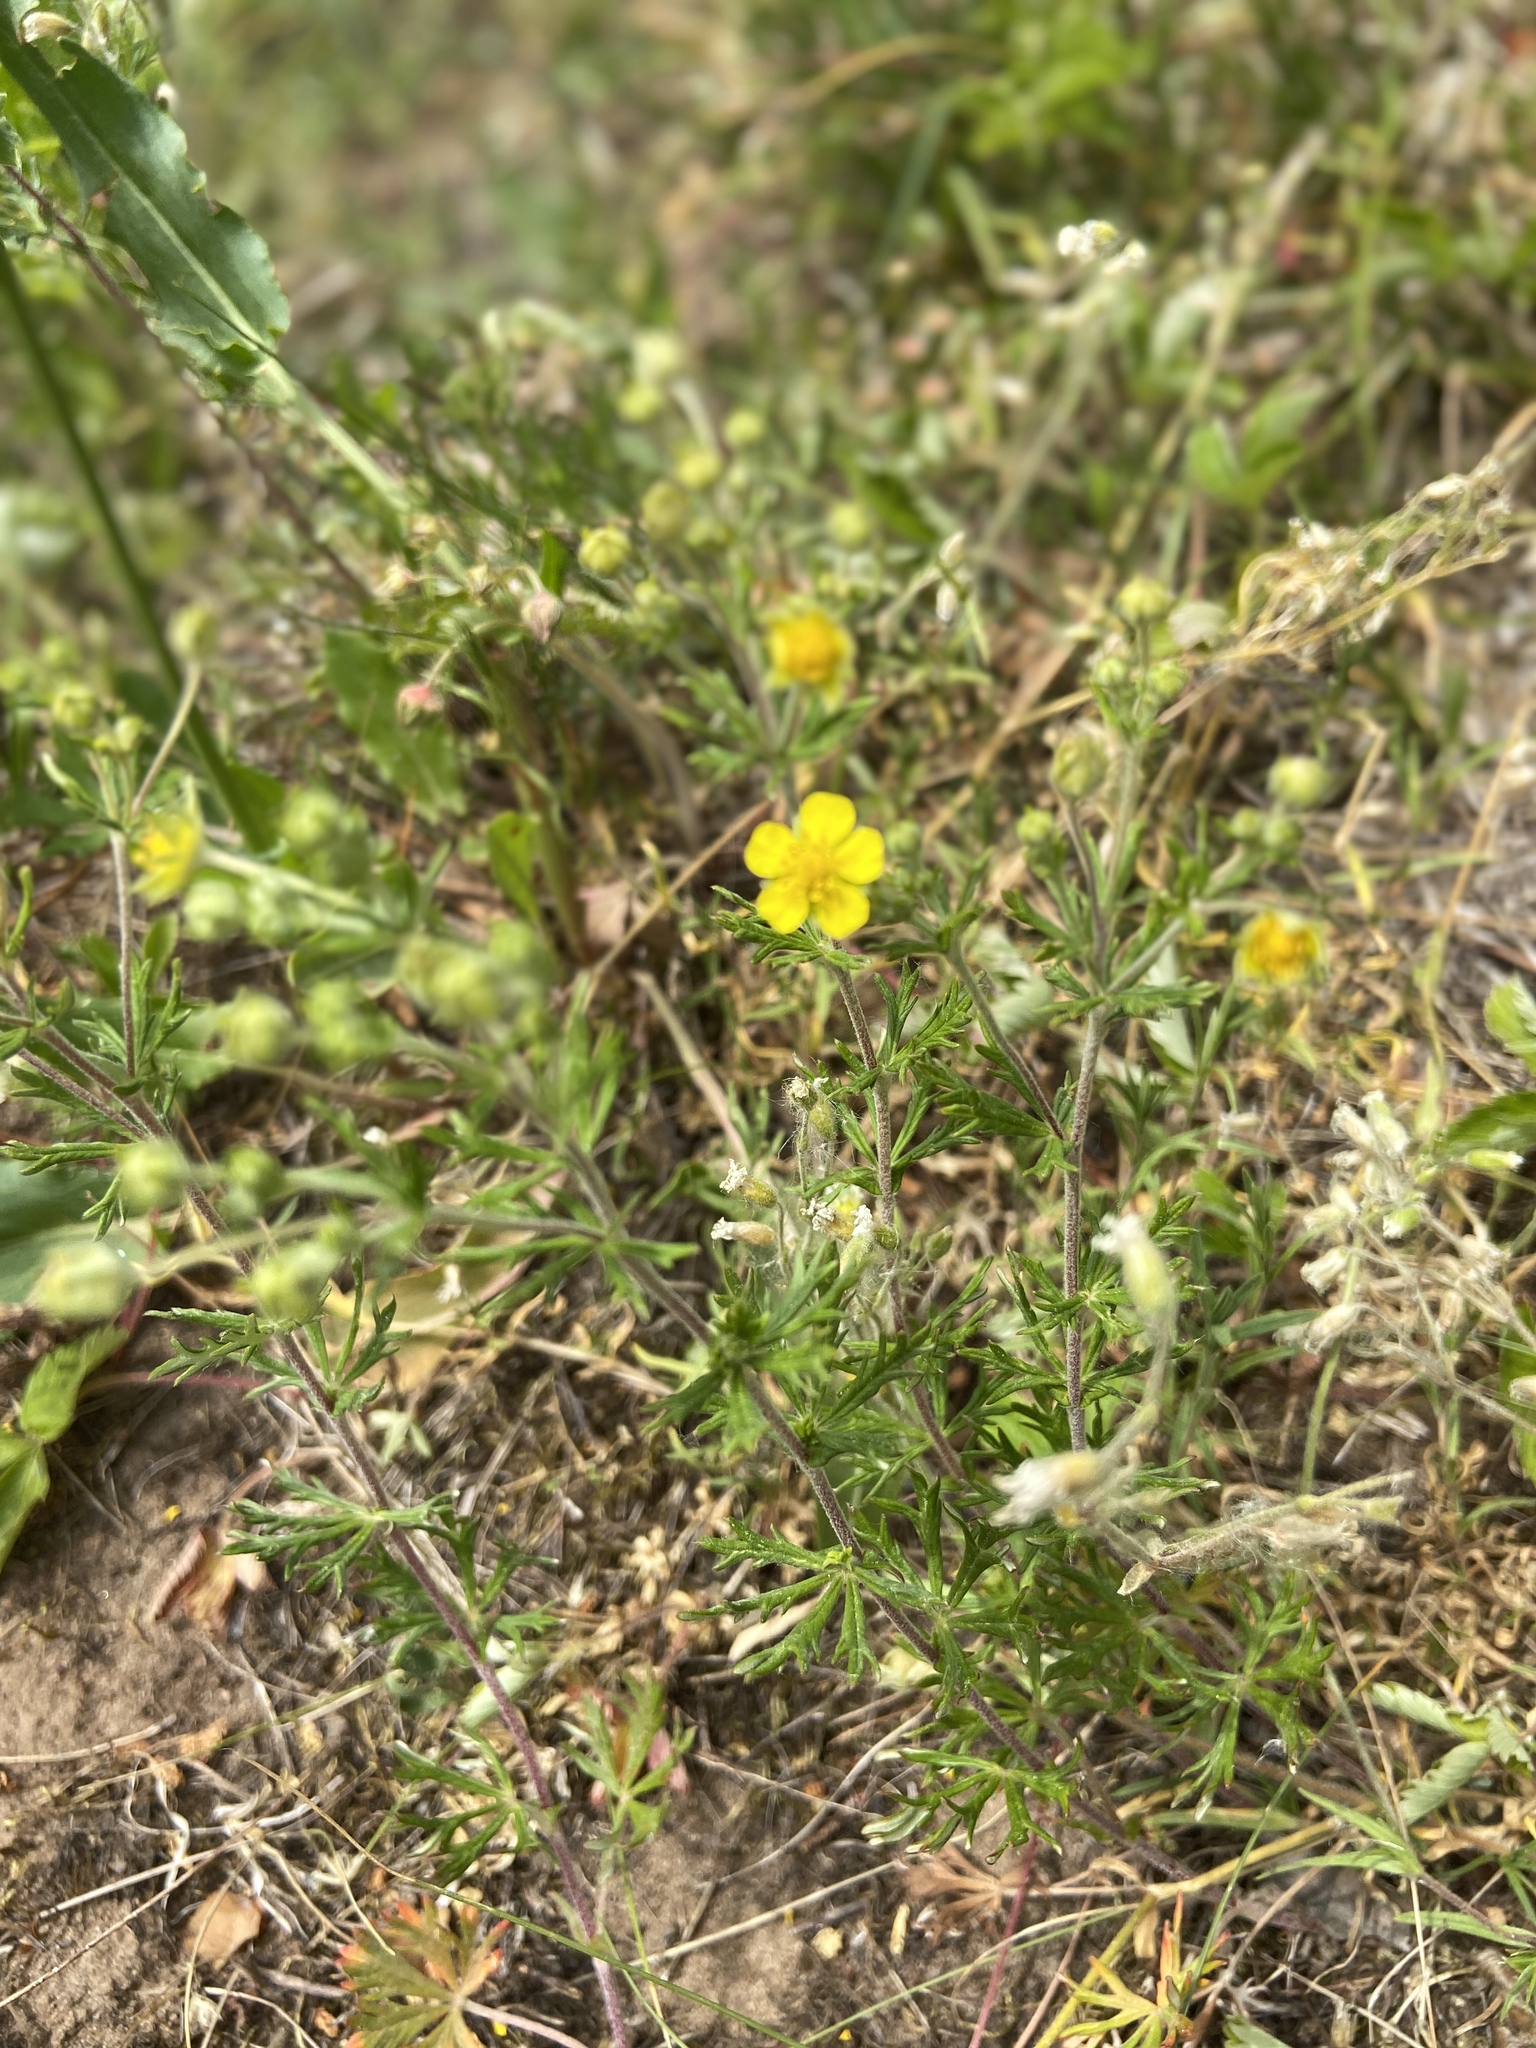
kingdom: Plantae
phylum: Tracheophyta
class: Magnoliopsida
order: Rosales
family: Rosaceae
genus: Potentilla
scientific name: Potentilla erecta
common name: Tormentil
